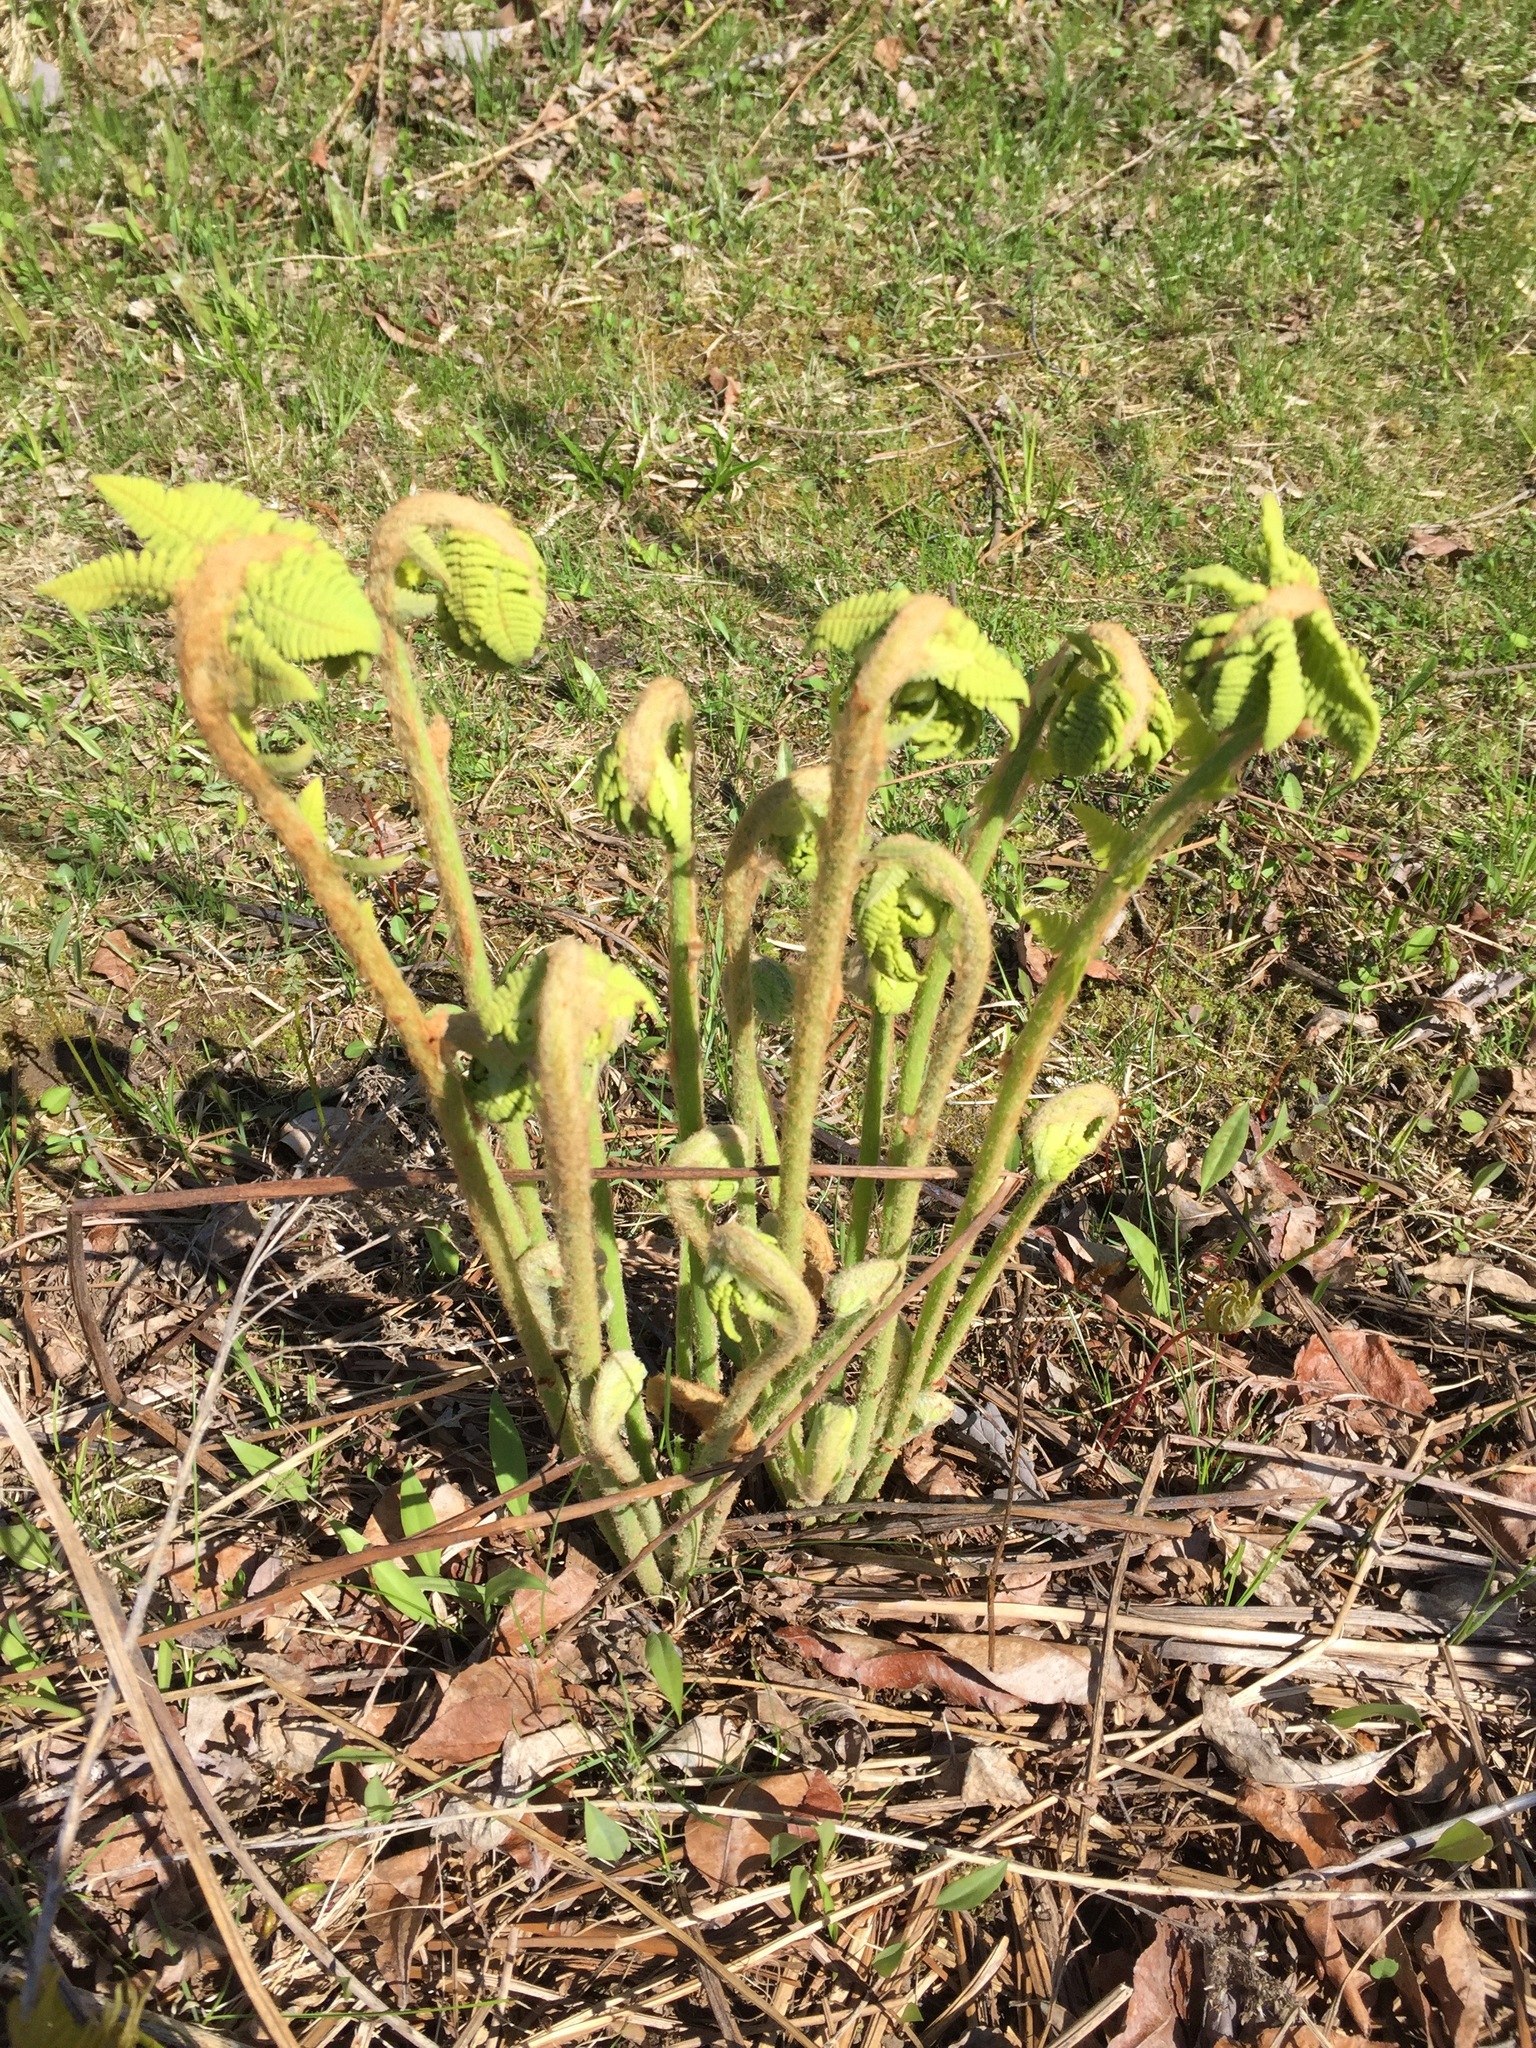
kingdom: Plantae
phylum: Tracheophyta
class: Polypodiopsida
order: Osmundales
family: Osmundaceae
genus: Claytosmunda
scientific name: Claytosmunda claytoniana
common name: Clayton's fern
